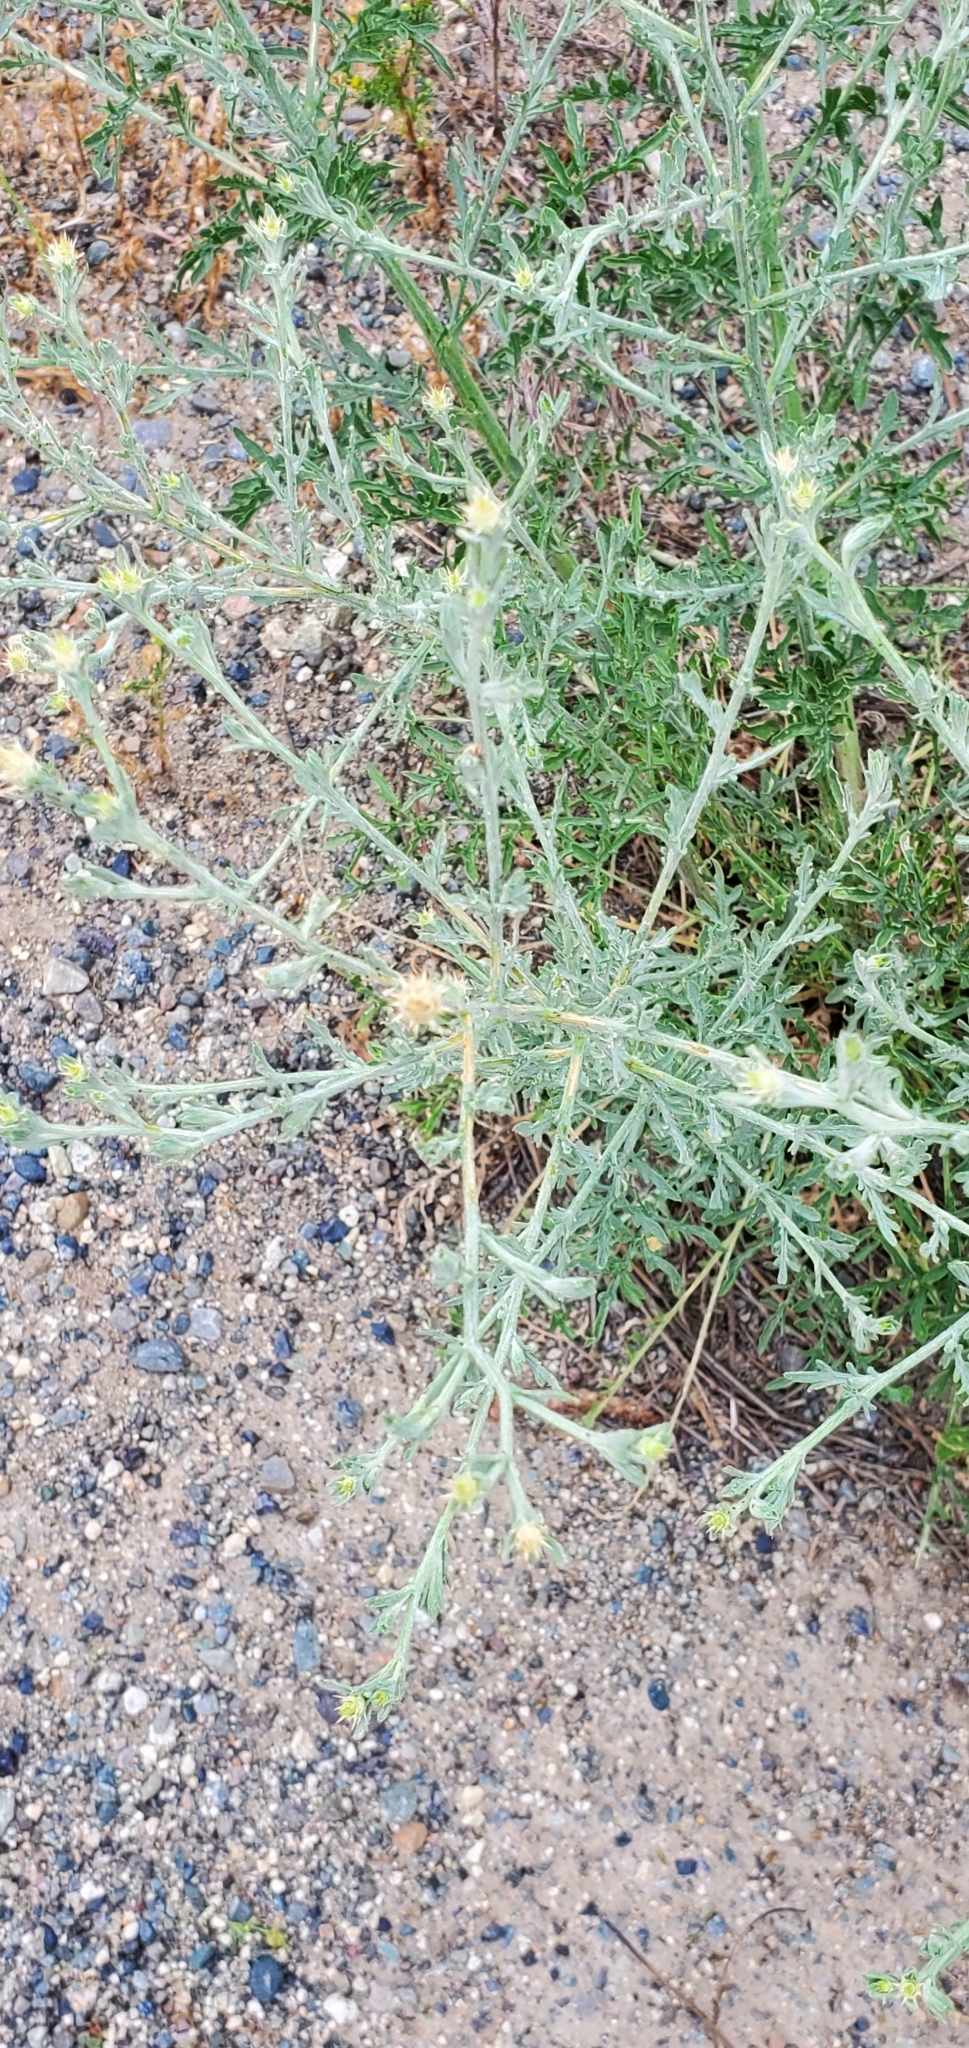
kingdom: Plantae
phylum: Tracheophyta
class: Magnoliopsida
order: Asterales
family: Asteraceae
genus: Centaurea
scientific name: Centaurea diffusa
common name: Diffuse knapweed
